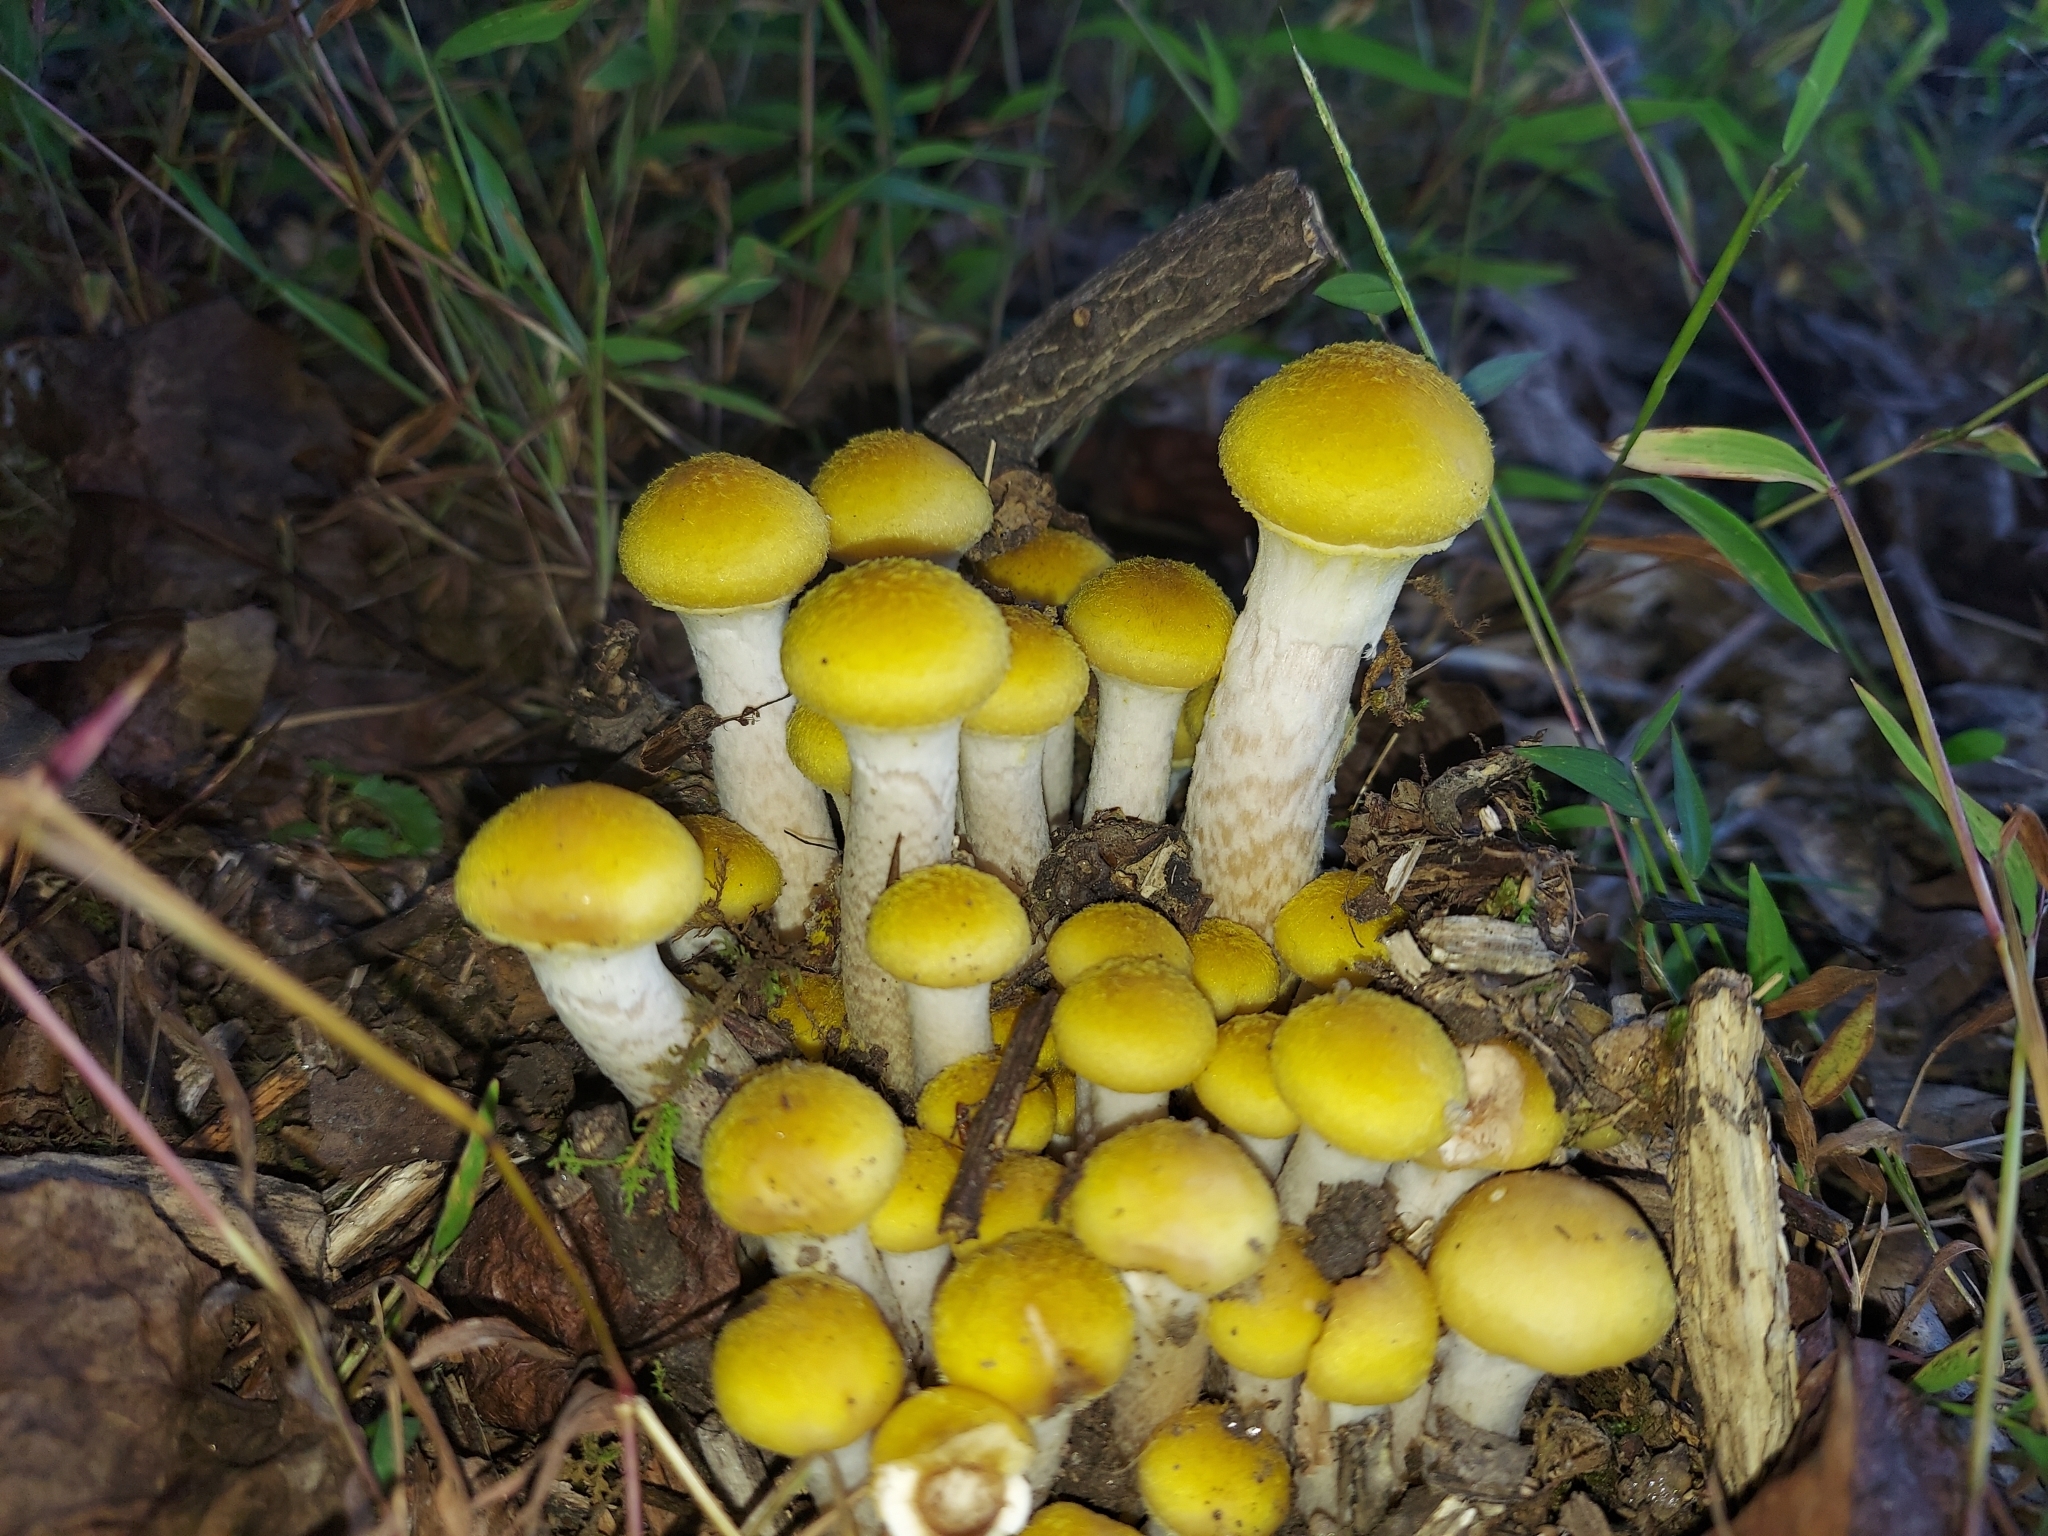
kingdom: Fungi
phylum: Basidiomycota
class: Agaricomycetes
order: Agaricales
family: Physalacriaceae
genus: Armillaria
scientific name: Armillaria mellea
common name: Honey fungus
